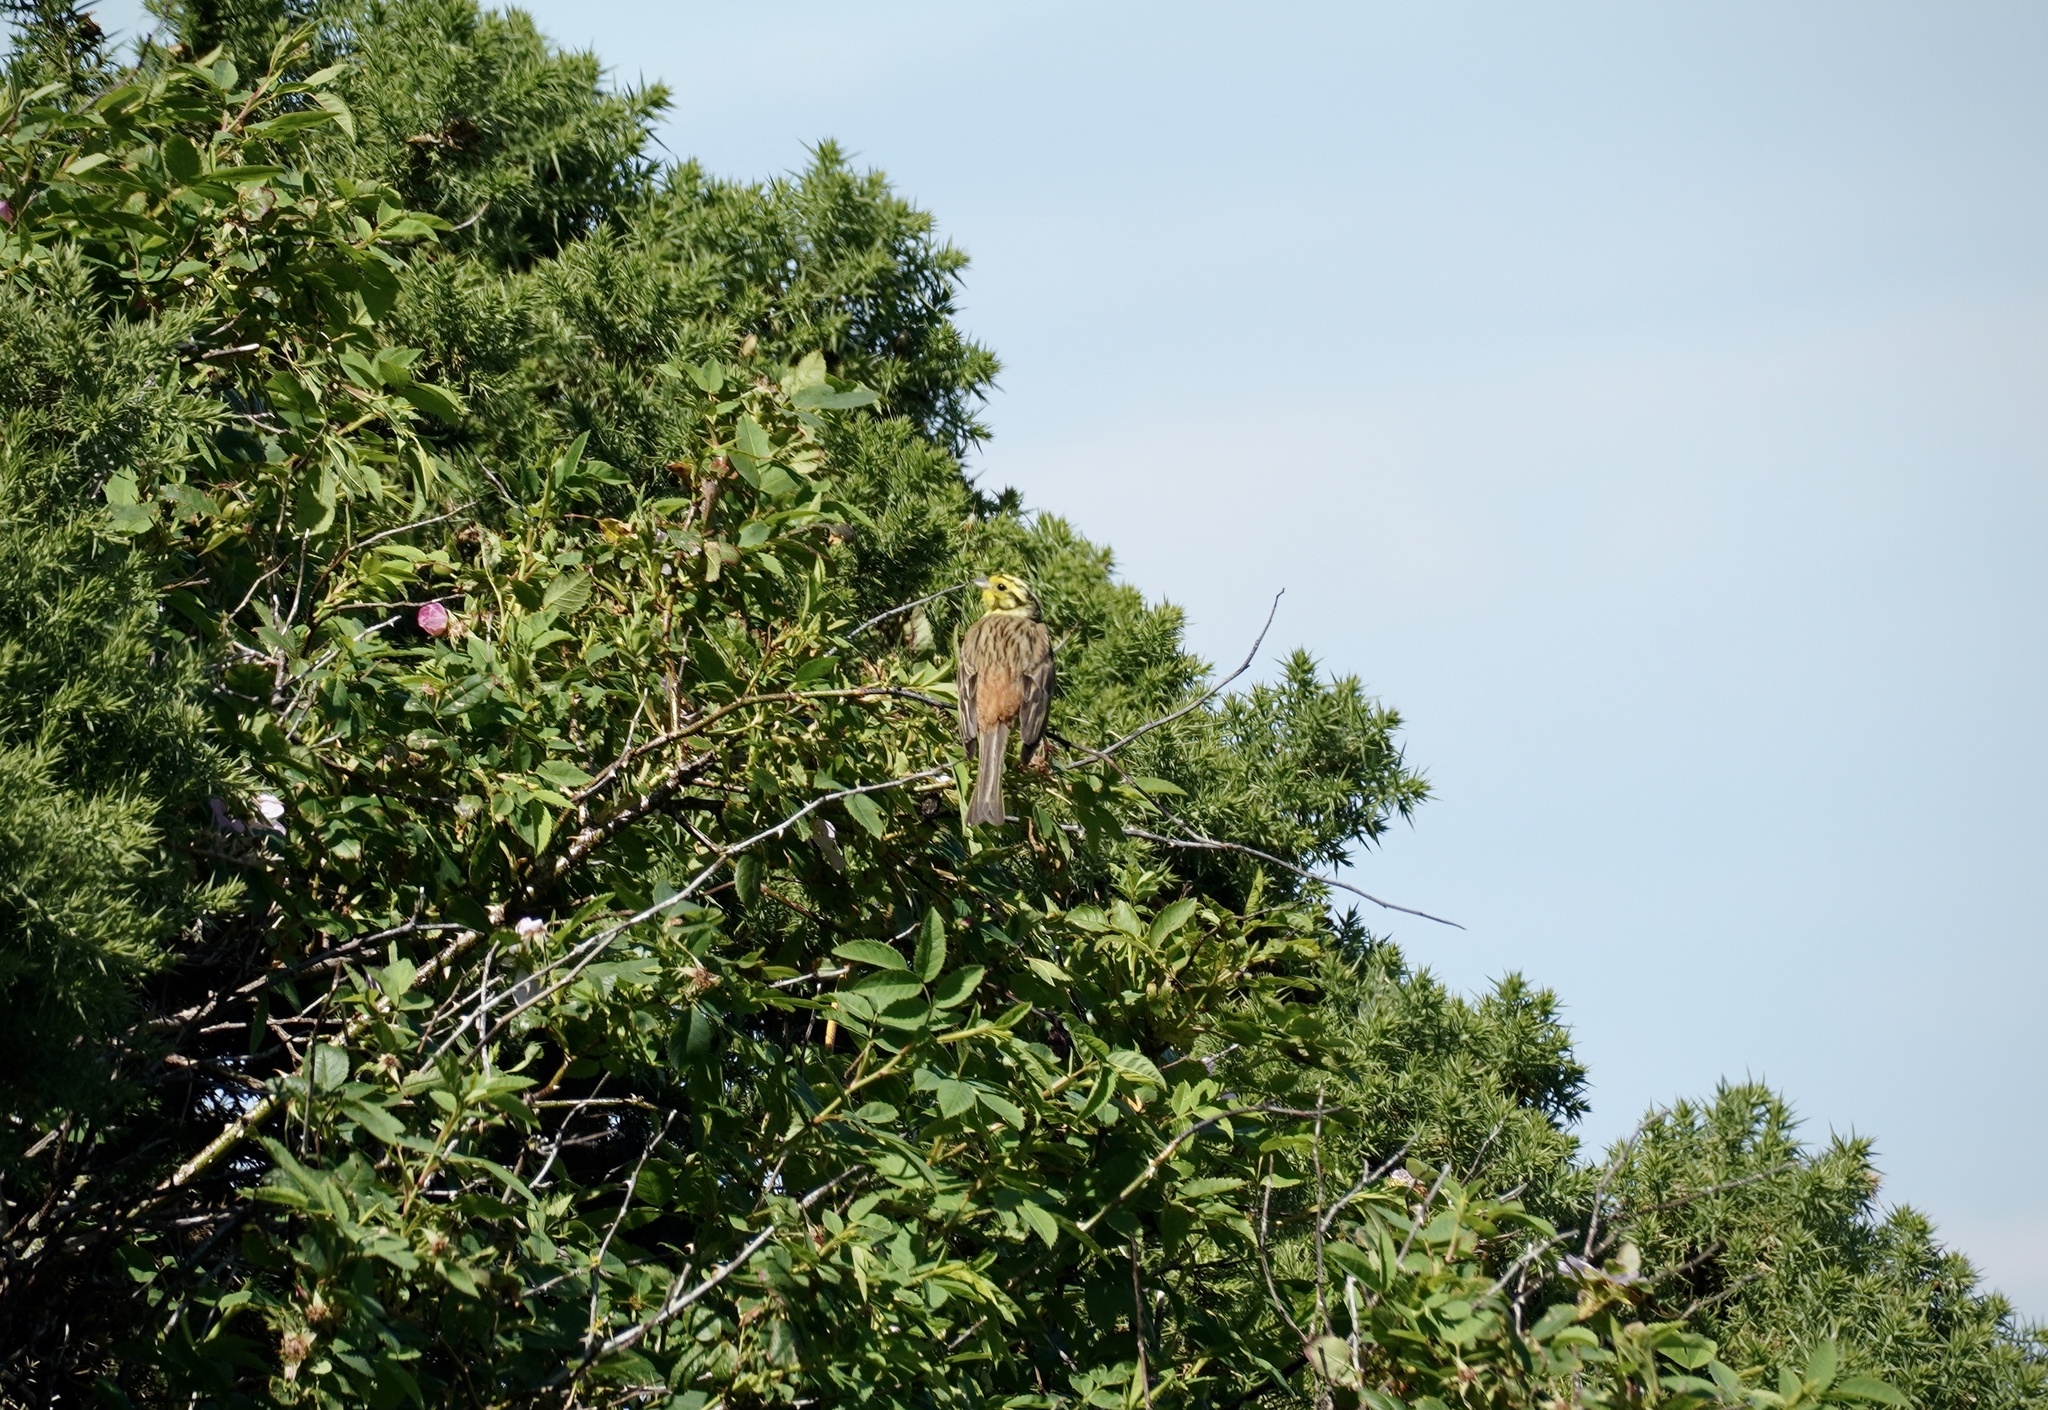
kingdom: Animalia
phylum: Chordata
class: Aves
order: Passeriformes
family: Emberizidae
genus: Emberiza
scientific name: Emberiza citrinella
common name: Yellowhammer
